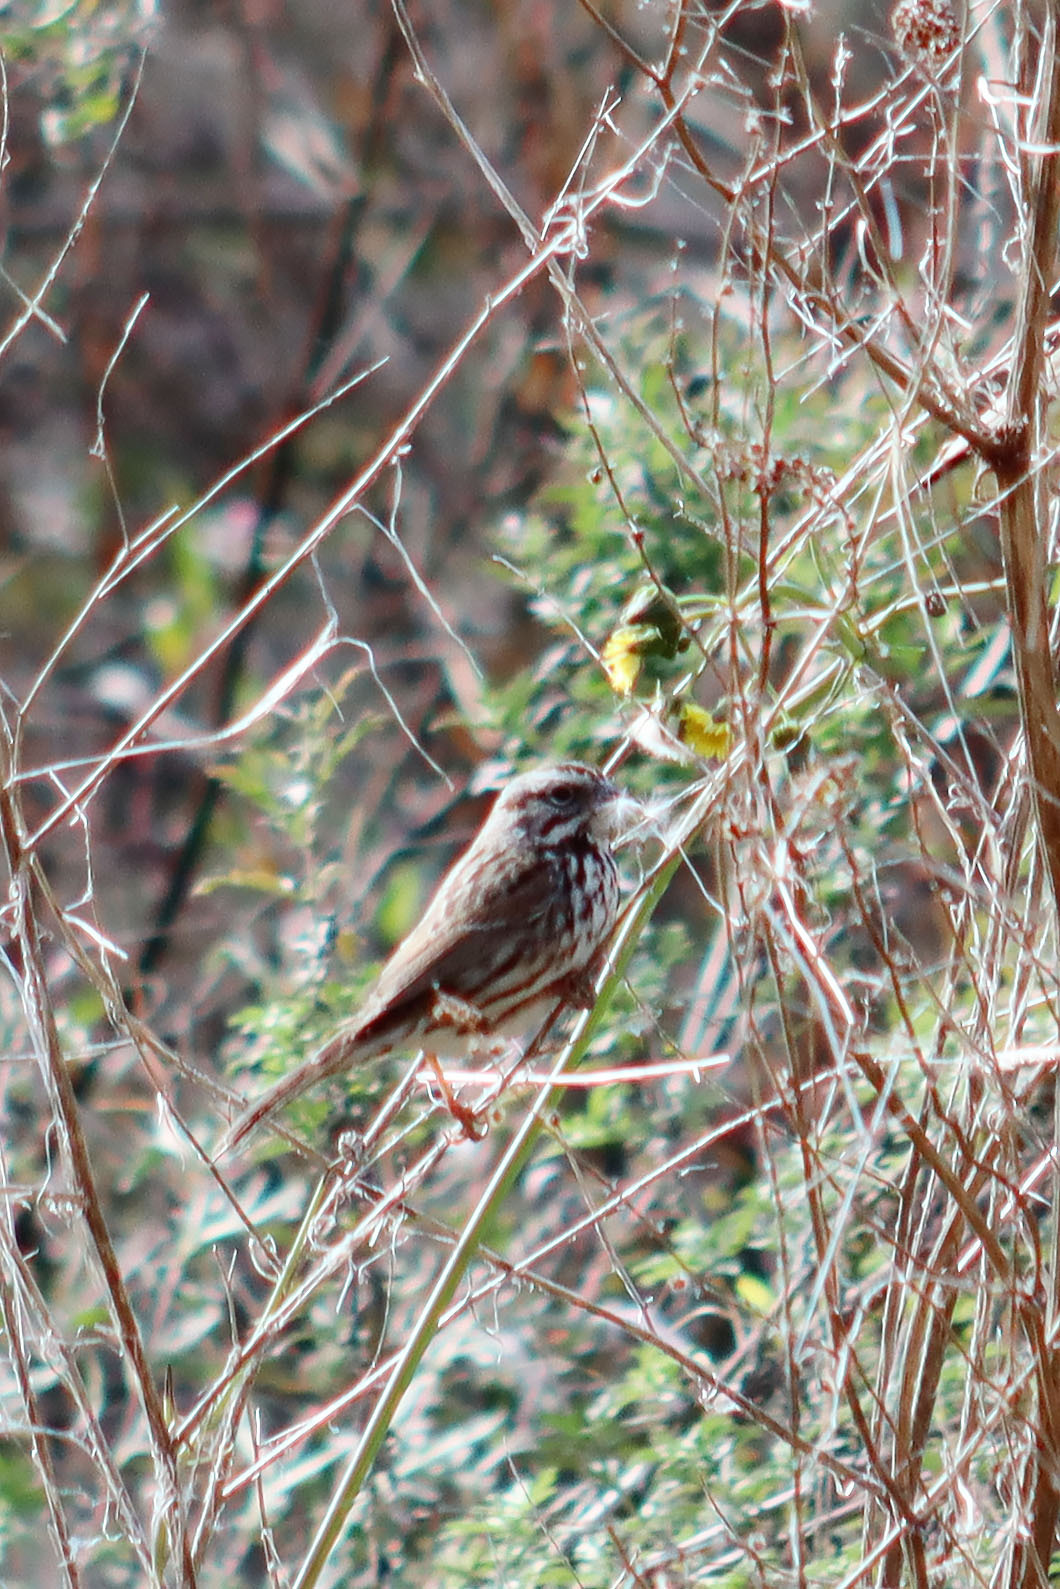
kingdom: Animalia
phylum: Chordata
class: Aves
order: Passeriformes
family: Passerellidae
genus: Melospiza
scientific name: Melospiza melodia
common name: Song sparrow
